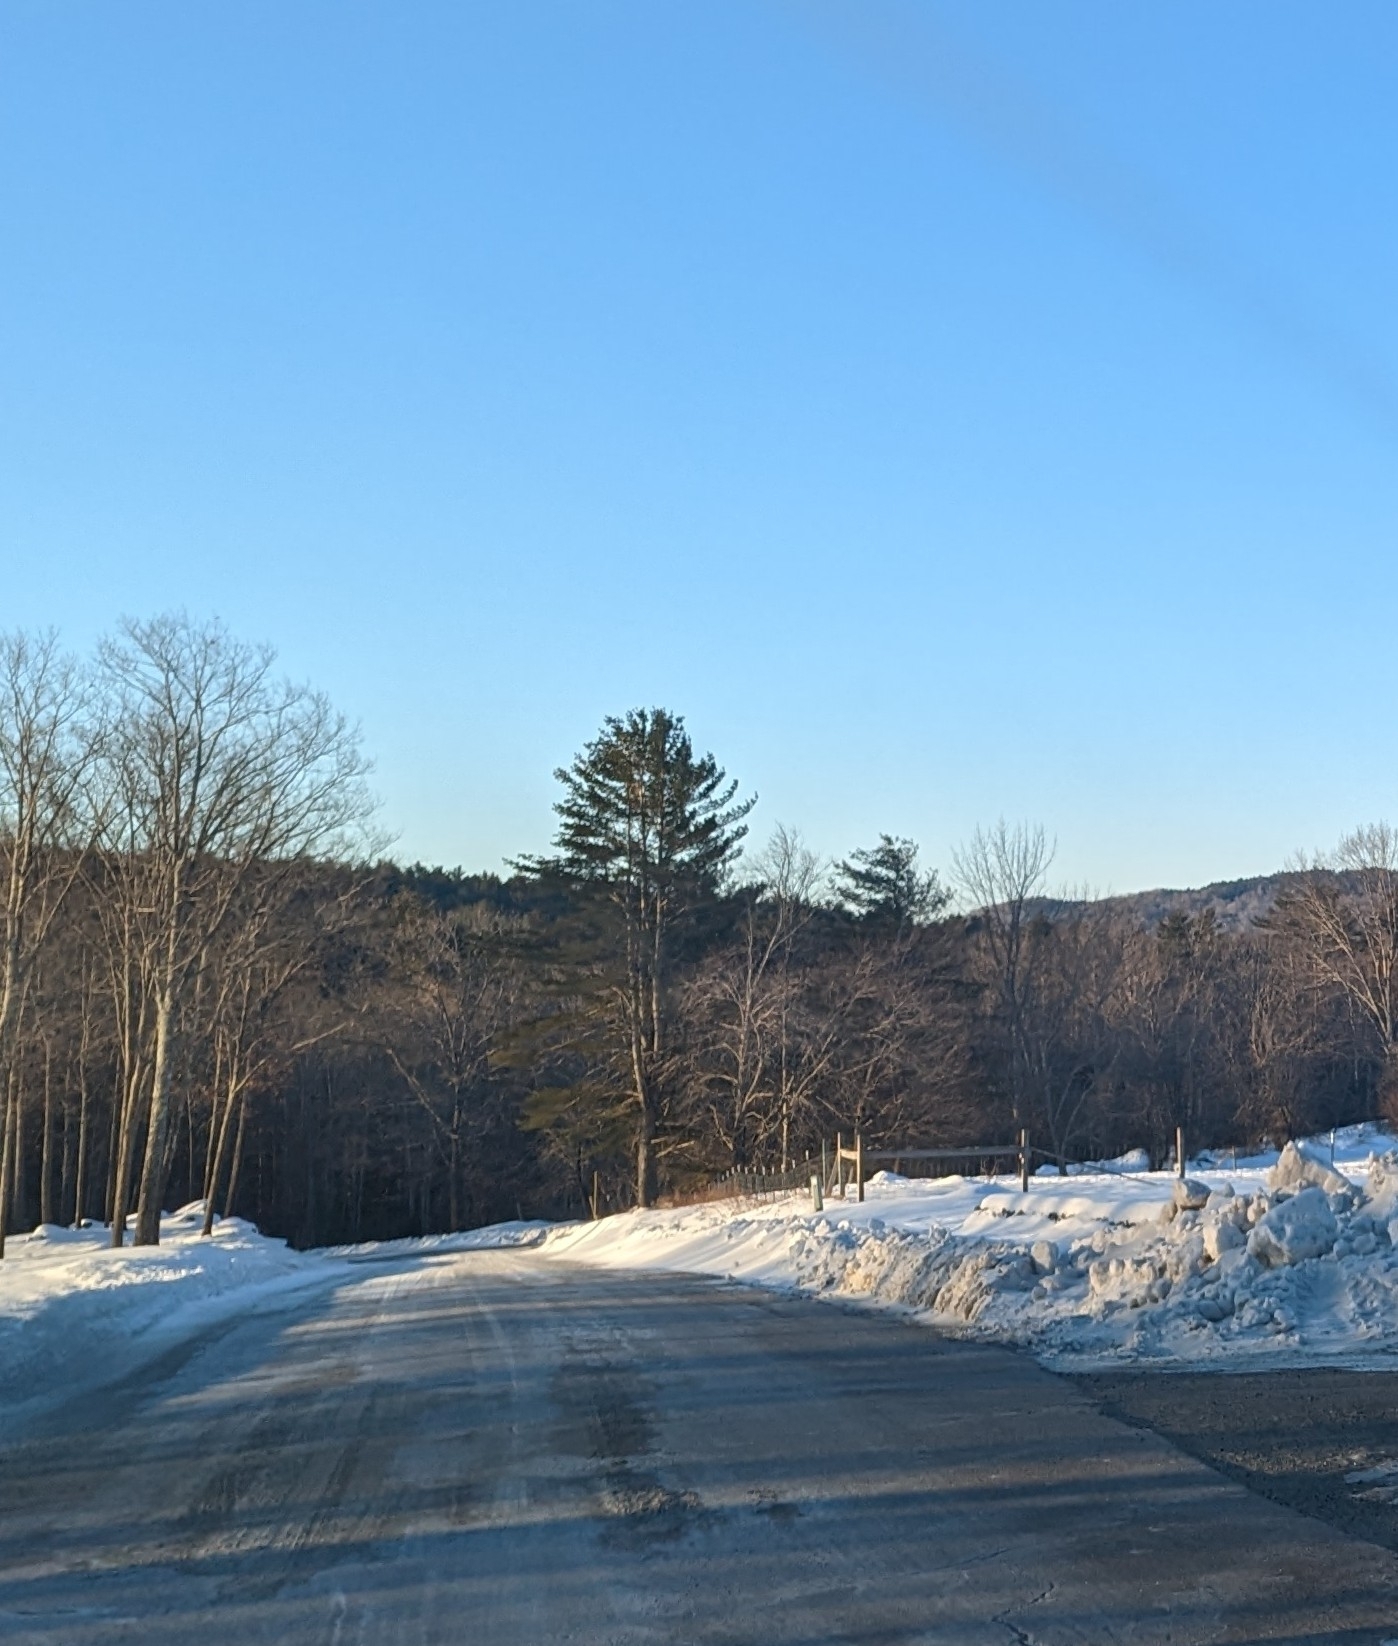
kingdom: Plantae
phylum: Tracheophyta
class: Pinopsida
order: Pinales
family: Pinaceae
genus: Pinus
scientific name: Pinus strobus
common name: Weymouth pine
